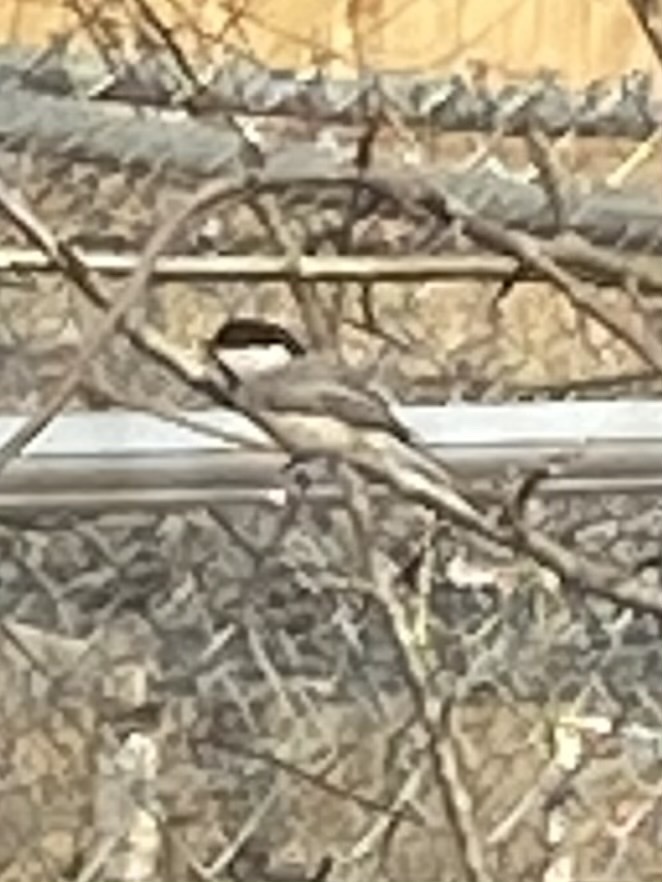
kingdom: Animalia
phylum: Chordata
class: Aves
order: Passeriformes
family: Paridae
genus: Poecile
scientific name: Poecile carolinensis
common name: Carolina chickadee
